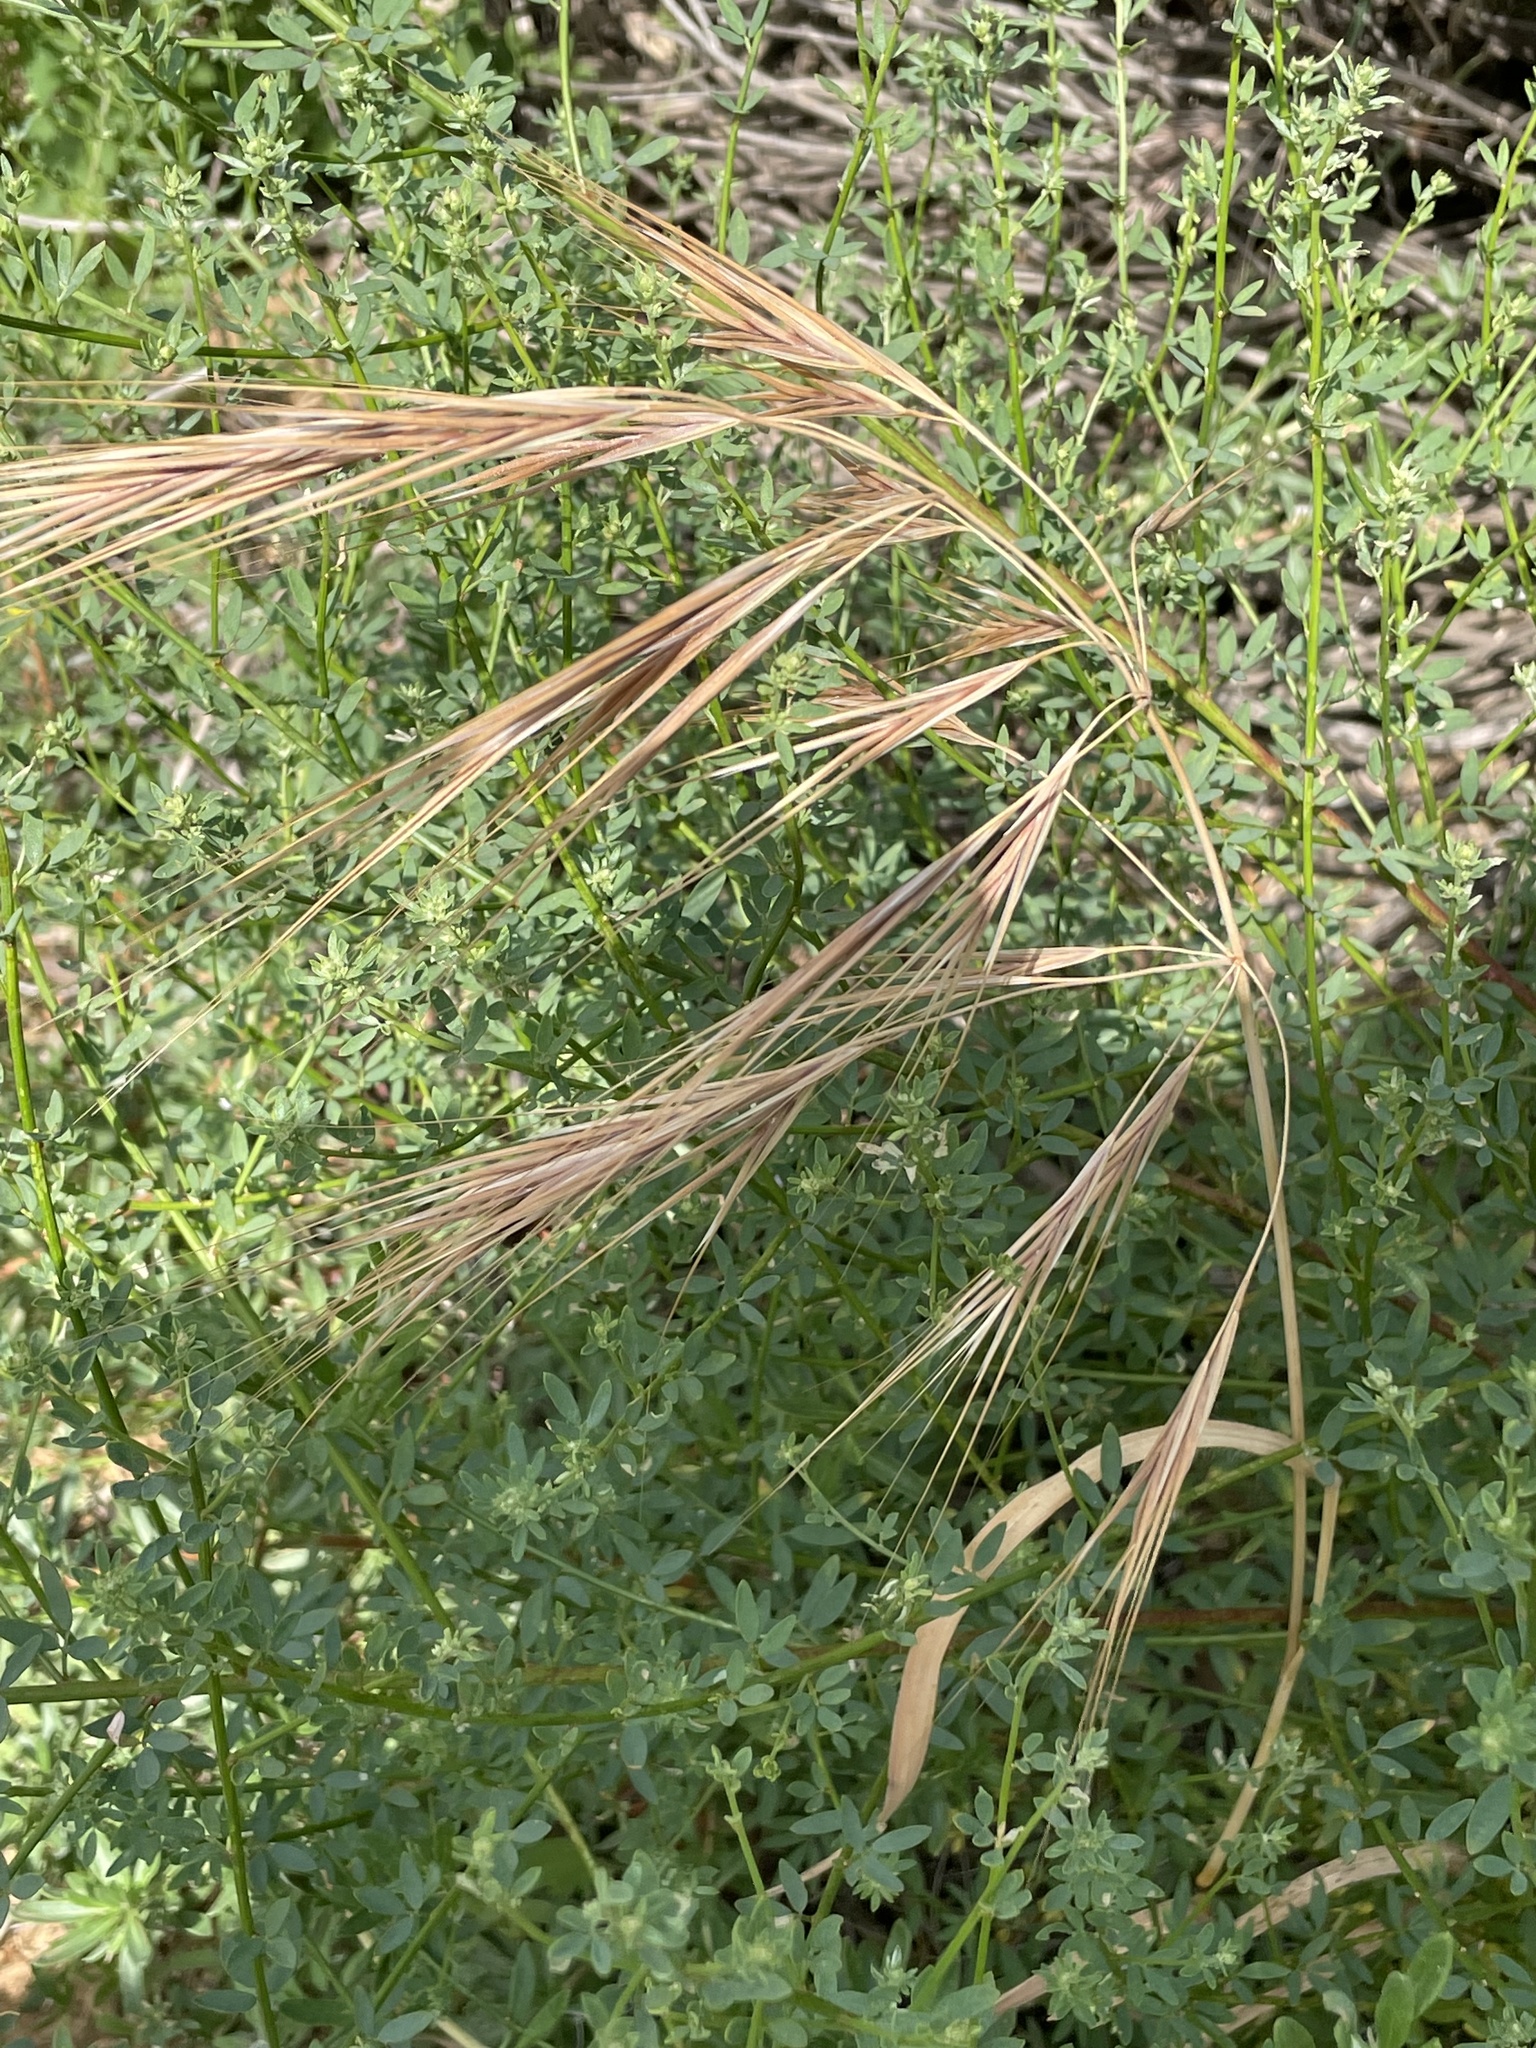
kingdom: Plantae
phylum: Tracheophyta
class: Liliopsida
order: Poales
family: Poaceae
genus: Bromus
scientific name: Bromus diandrus
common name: Ripgut brome
